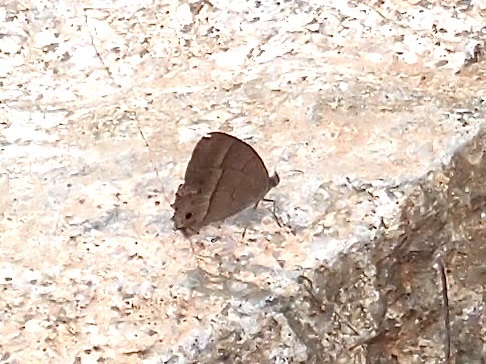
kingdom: Animalia
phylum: Arthropoda
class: Insecta
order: Lepidoptera
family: Nymphalidae
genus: Vareuptychia
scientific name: Vareuptychia similis
